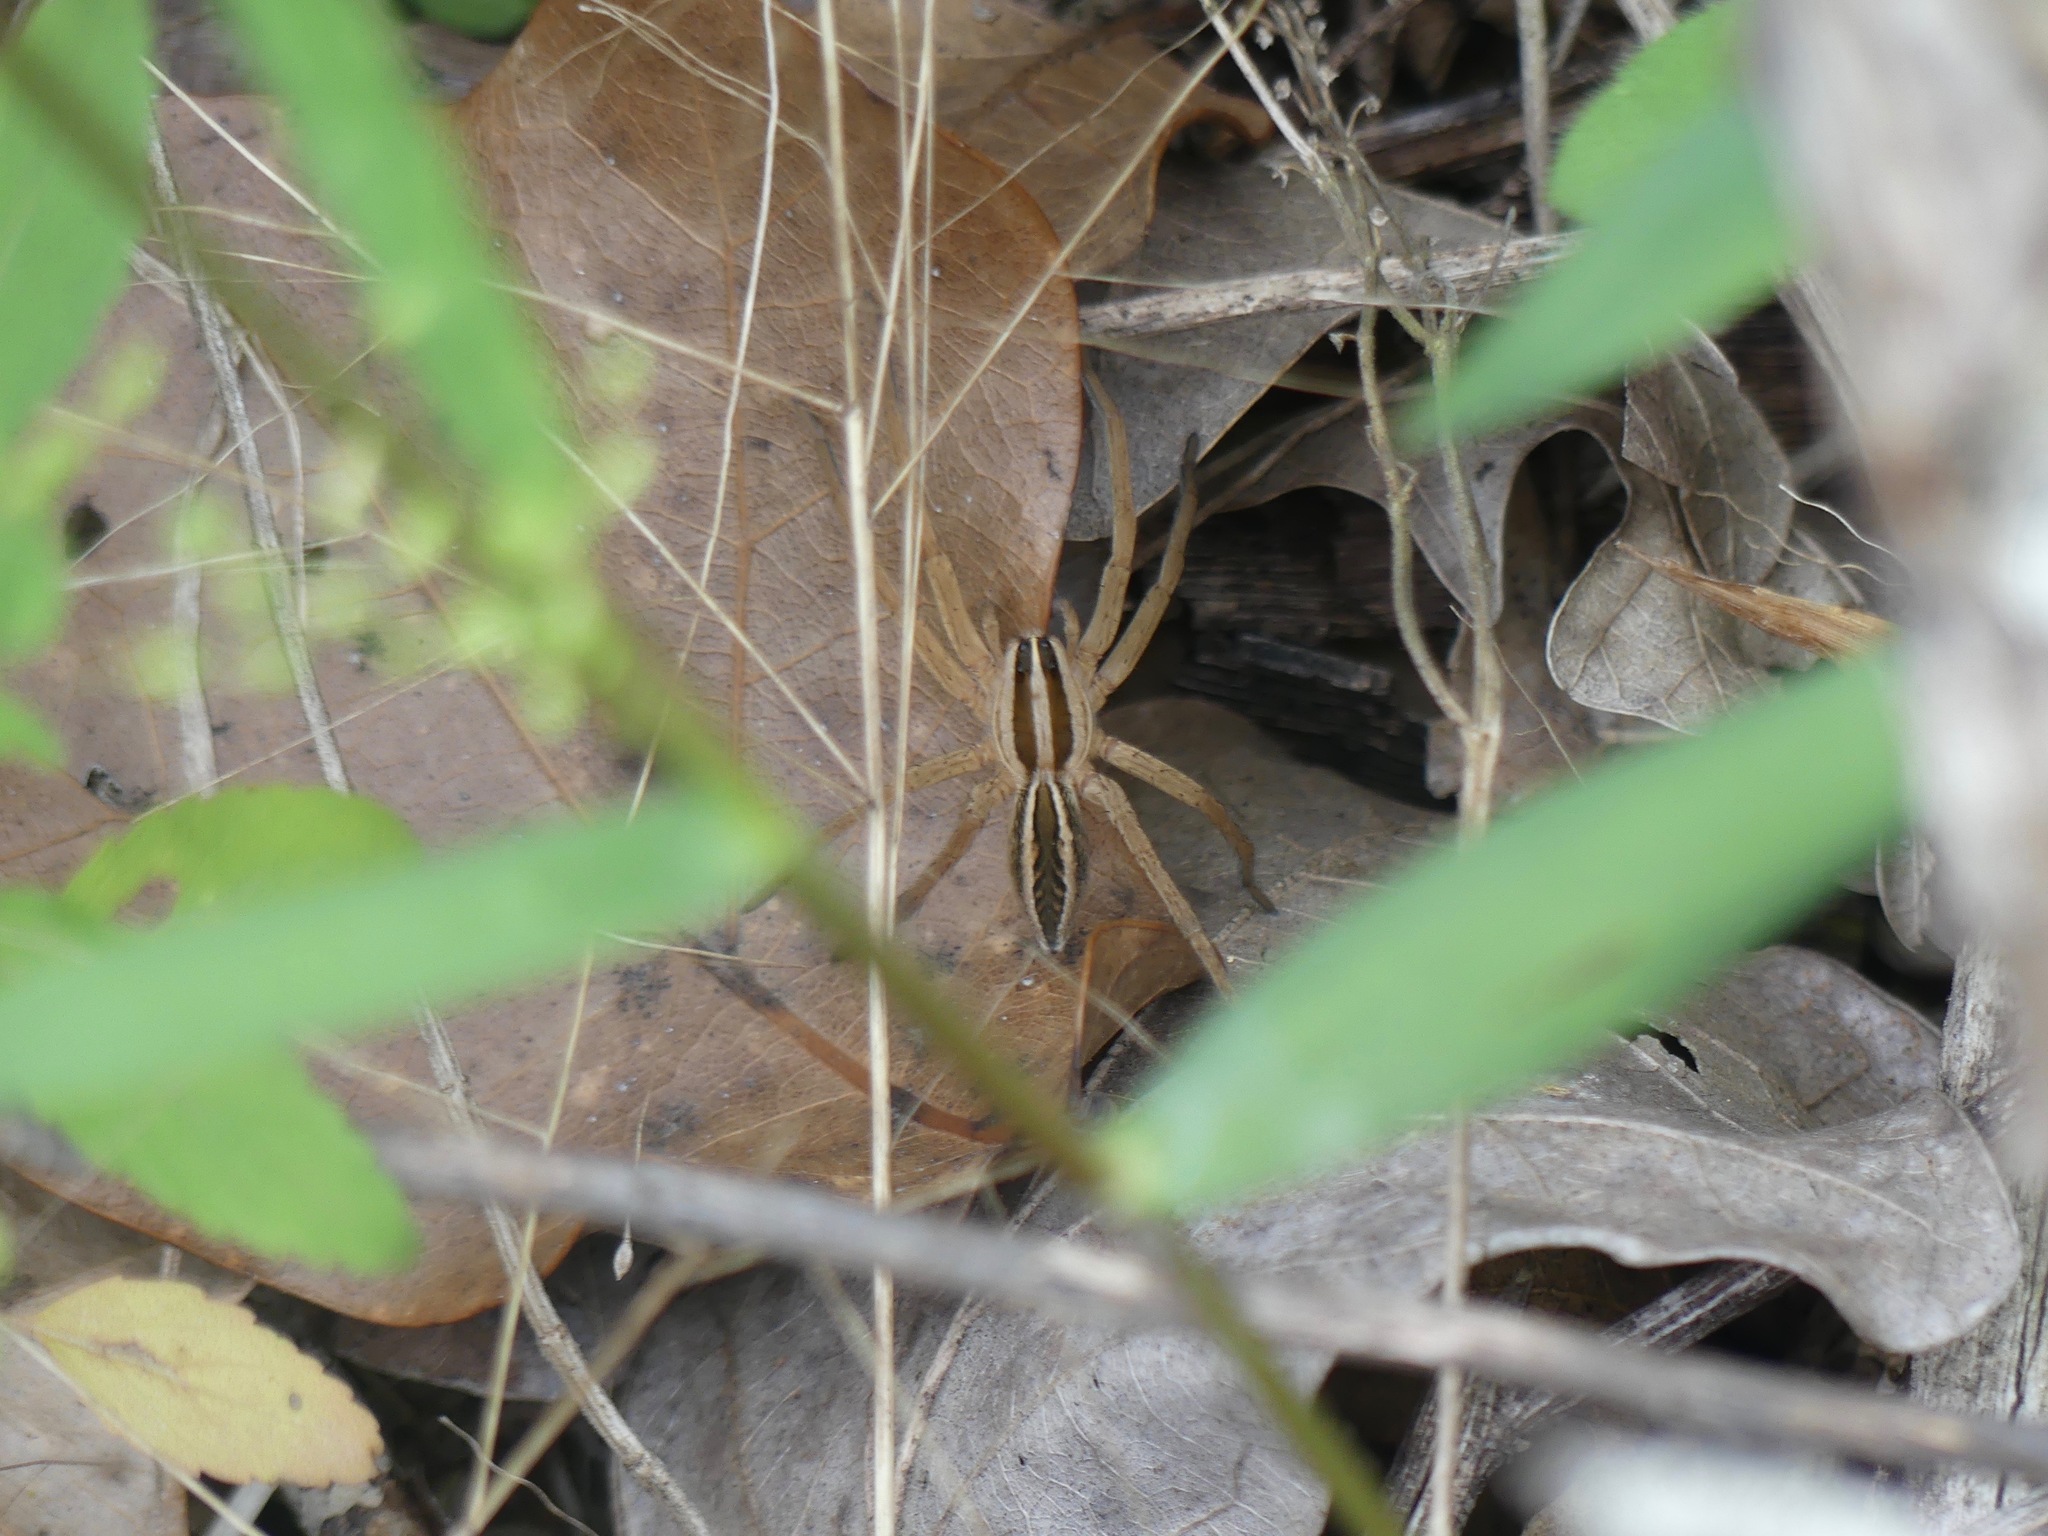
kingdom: Animalia
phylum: Arthropoda
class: Arachnida
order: Araneae
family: Lycosidae
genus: Rabidosa
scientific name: Rabidosa rabida
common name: Rabid wolf spider
